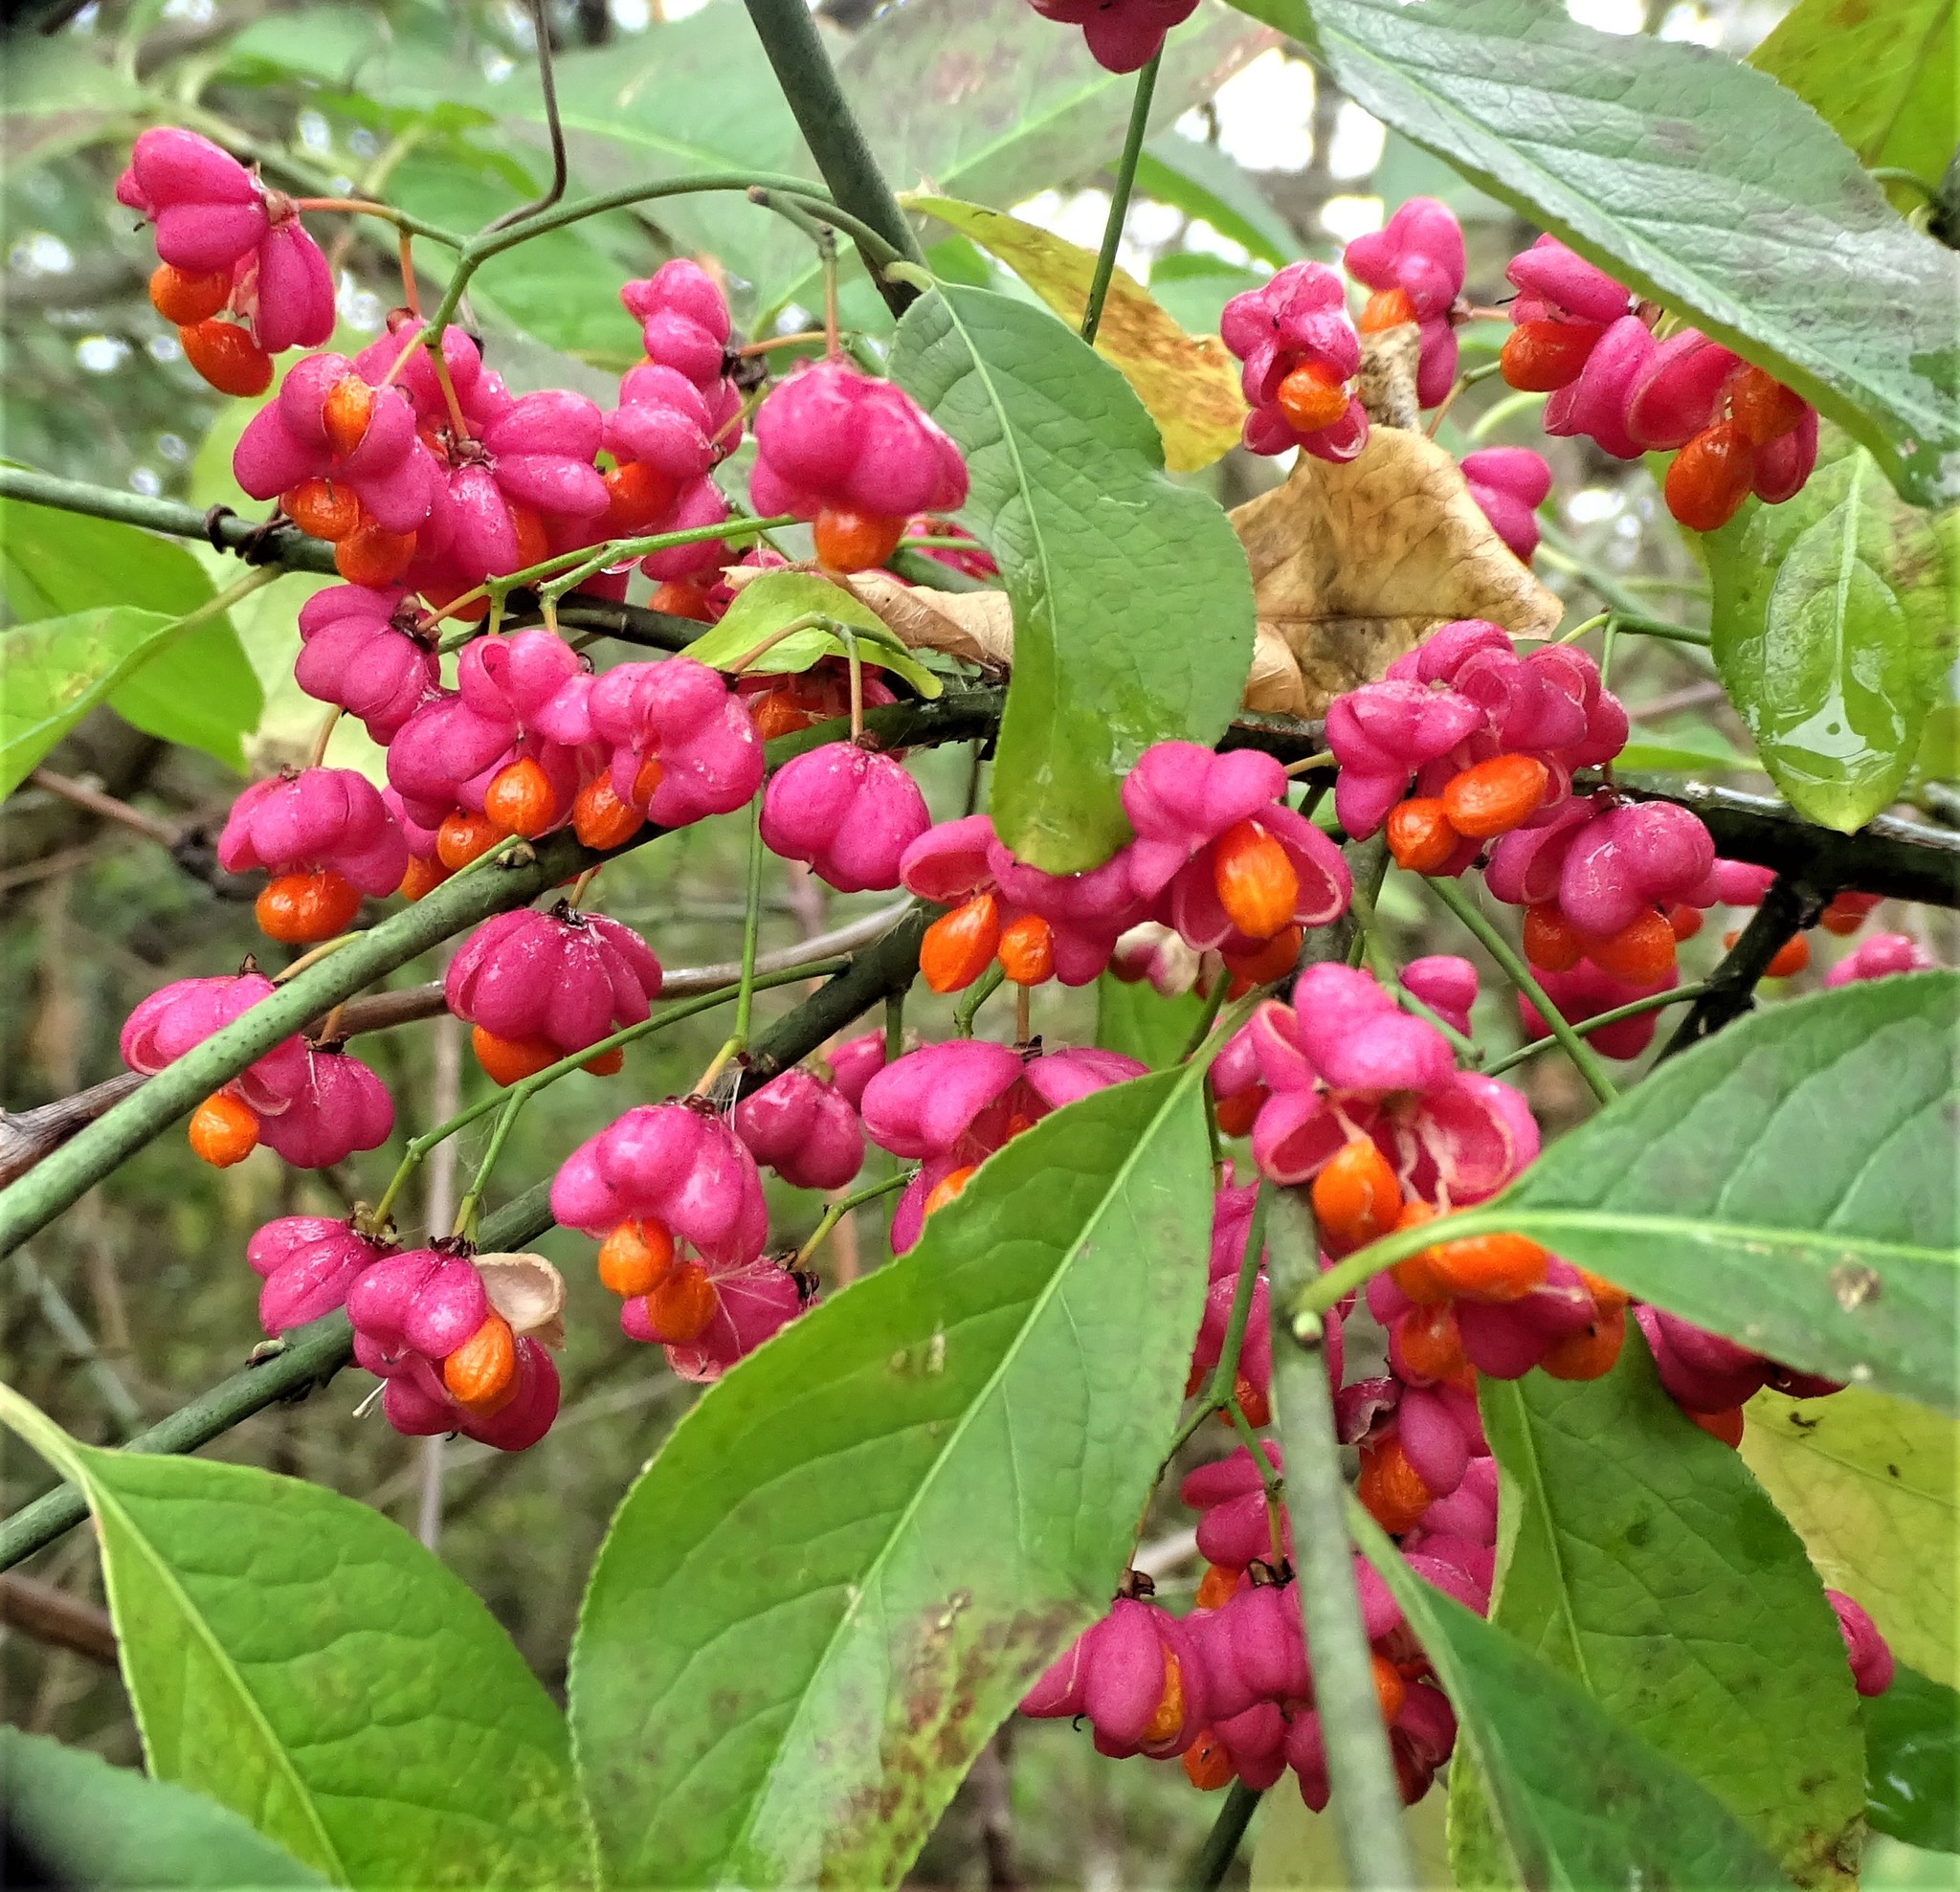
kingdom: Plantae
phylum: Tracheophyta
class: Magnoliopsida
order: Celastrales
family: Celastraceae
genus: Euonymus
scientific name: Euonymus europaeus
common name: Spindle
